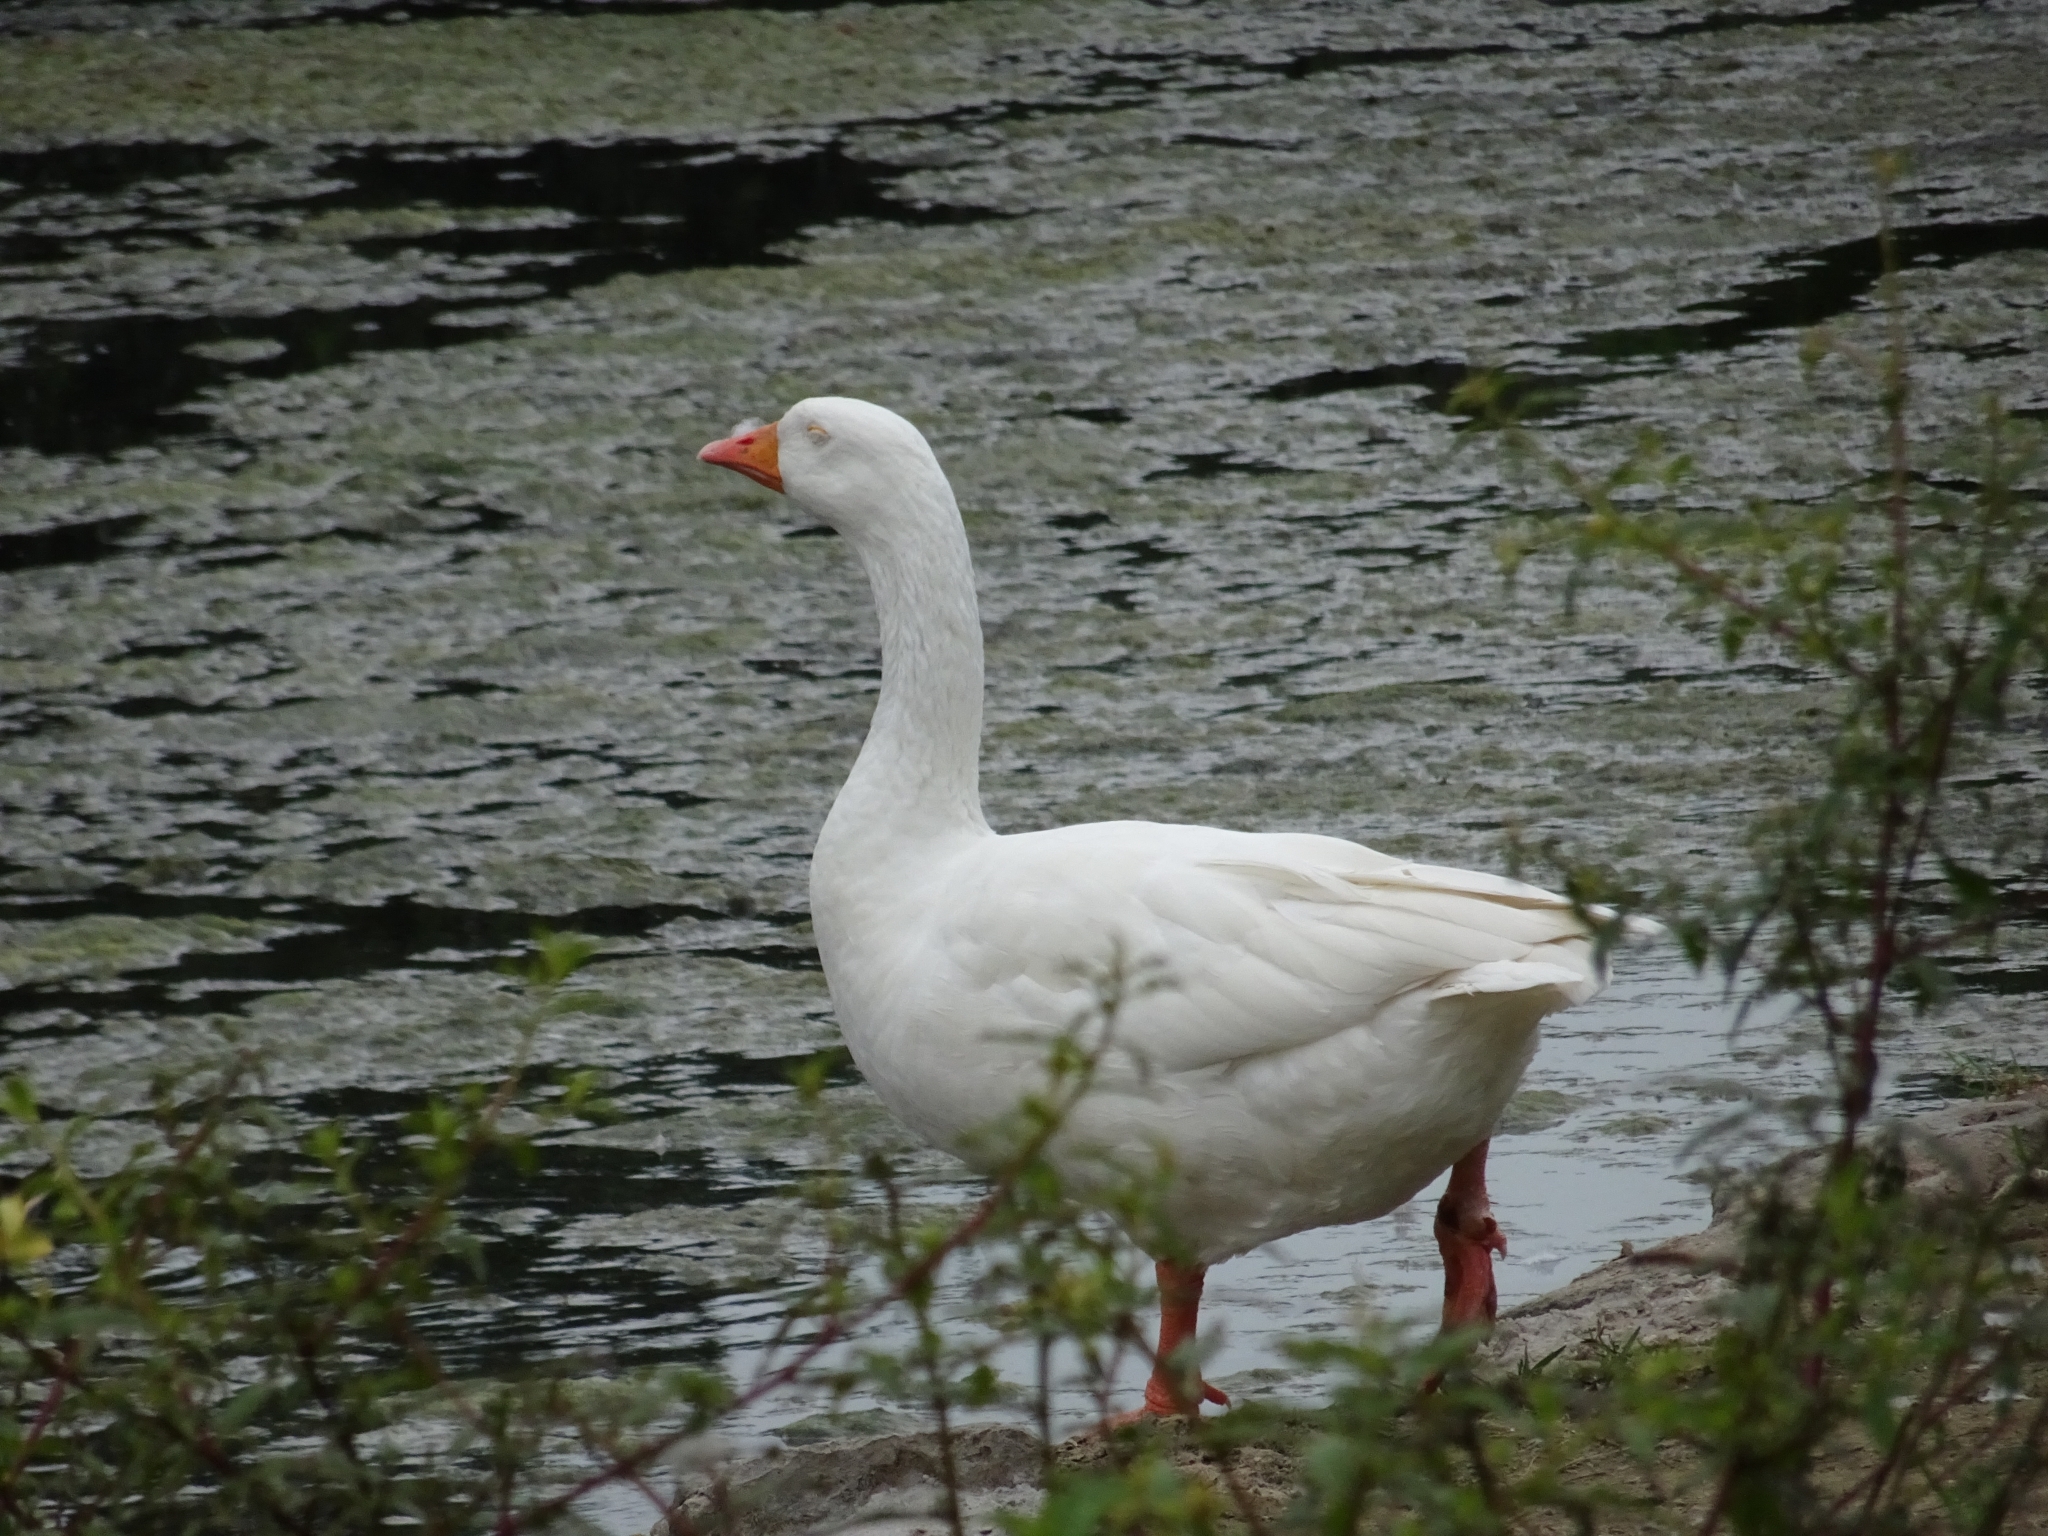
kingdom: Animalia
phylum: Chordata
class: Aves
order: Anseriformes
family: Anatidae
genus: Anser
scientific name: Anser anser
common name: Greylag goose
